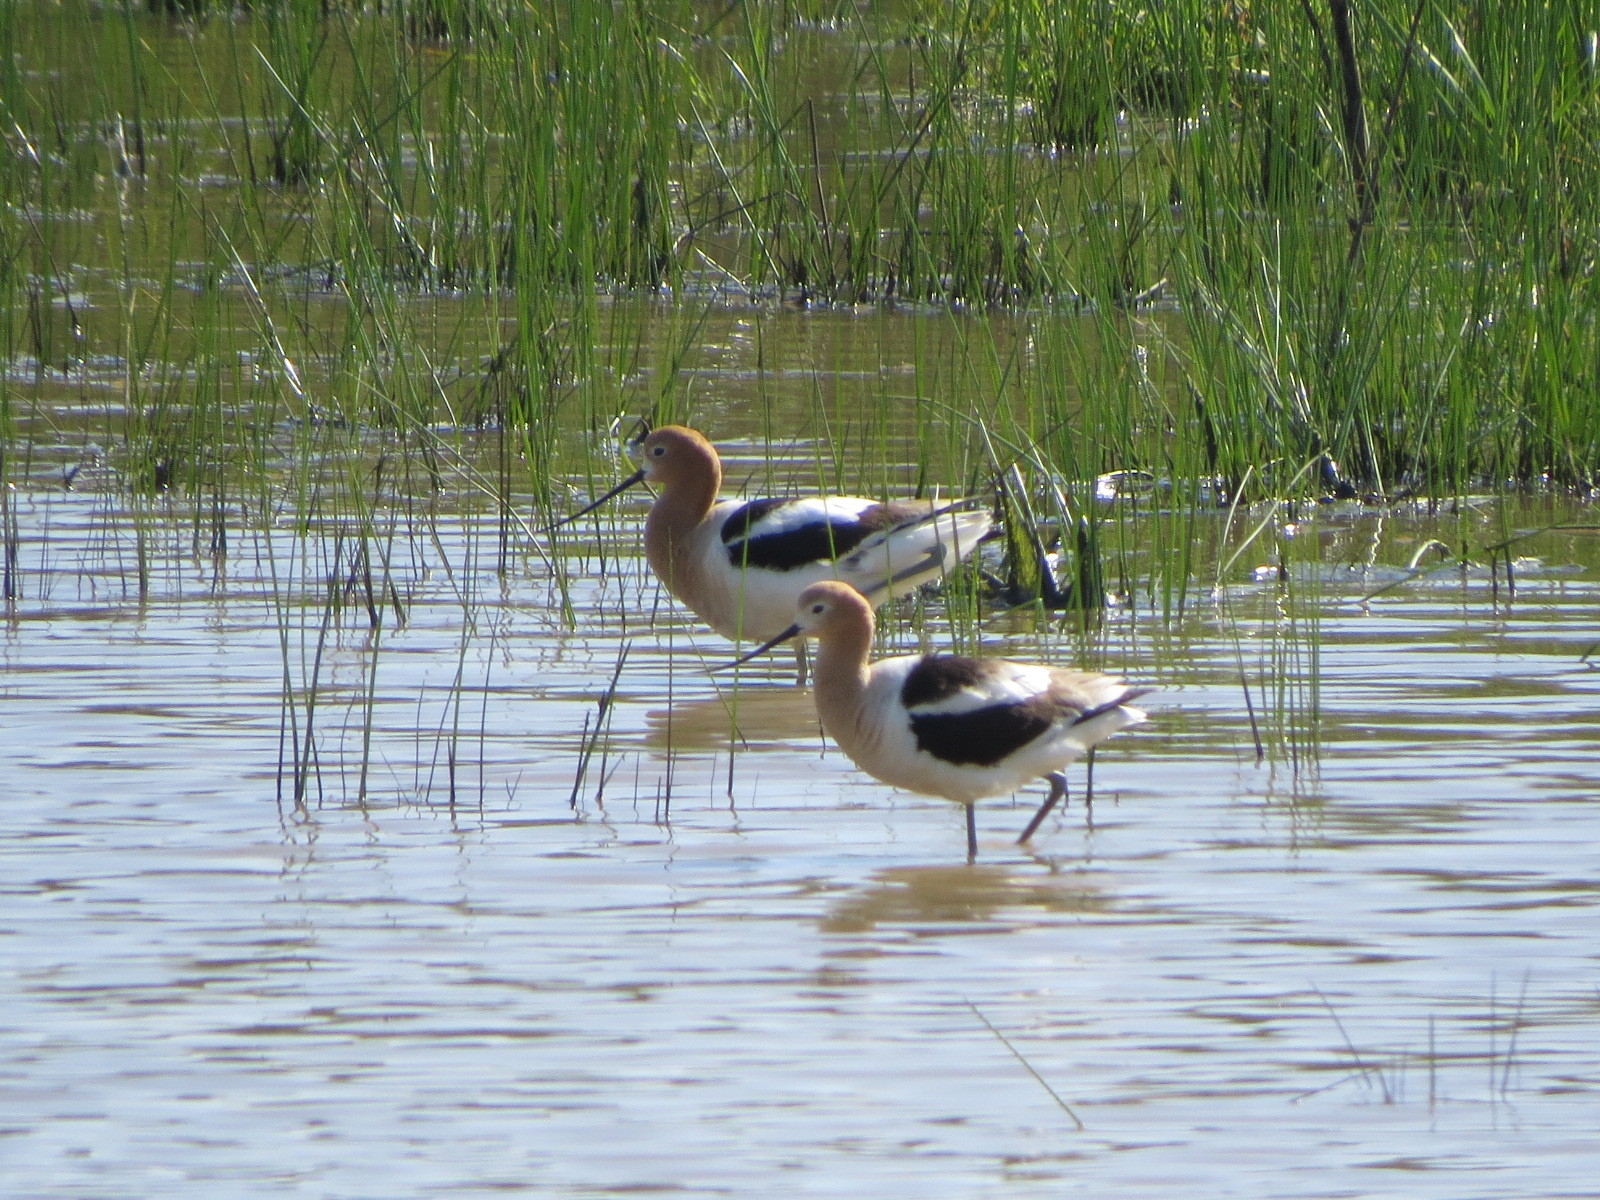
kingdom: Animalia
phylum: Chordata
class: Aves
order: Charadriiformes
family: Recurvirostridae
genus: Recurvirostra
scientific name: Recurvirostra americana
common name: American avocet
